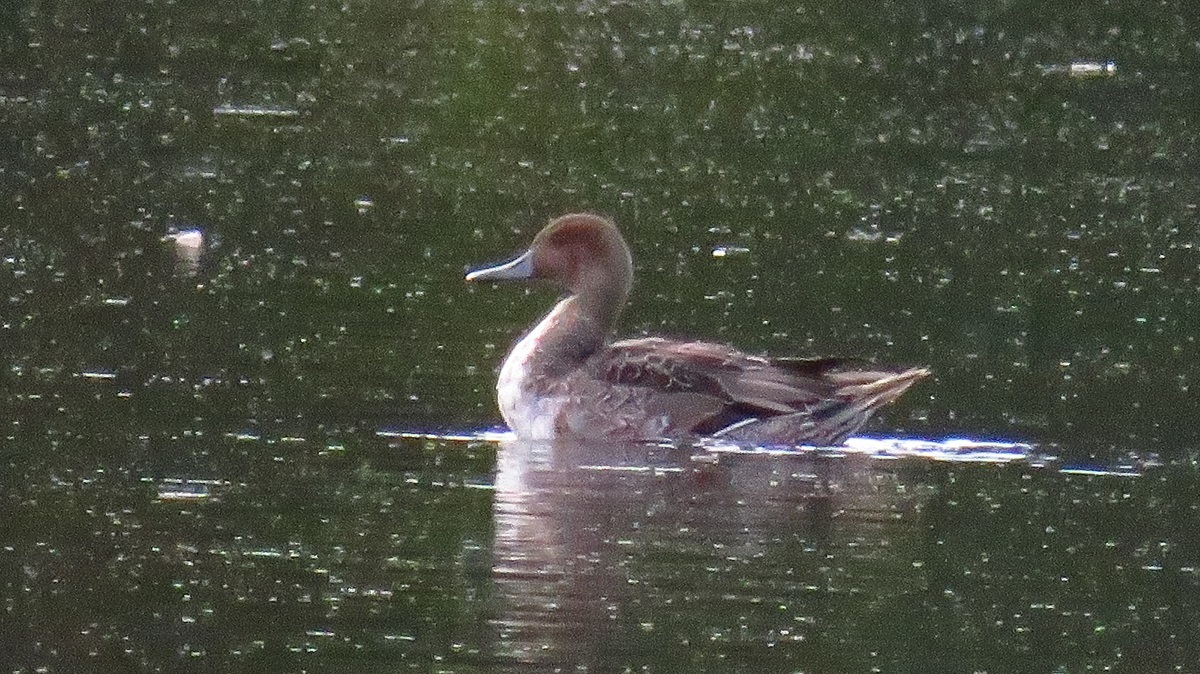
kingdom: Animalia
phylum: Chordata
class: Aves
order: Anseriformes
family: Anatidae
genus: Anas
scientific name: Anas acuta
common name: Northern pintail
